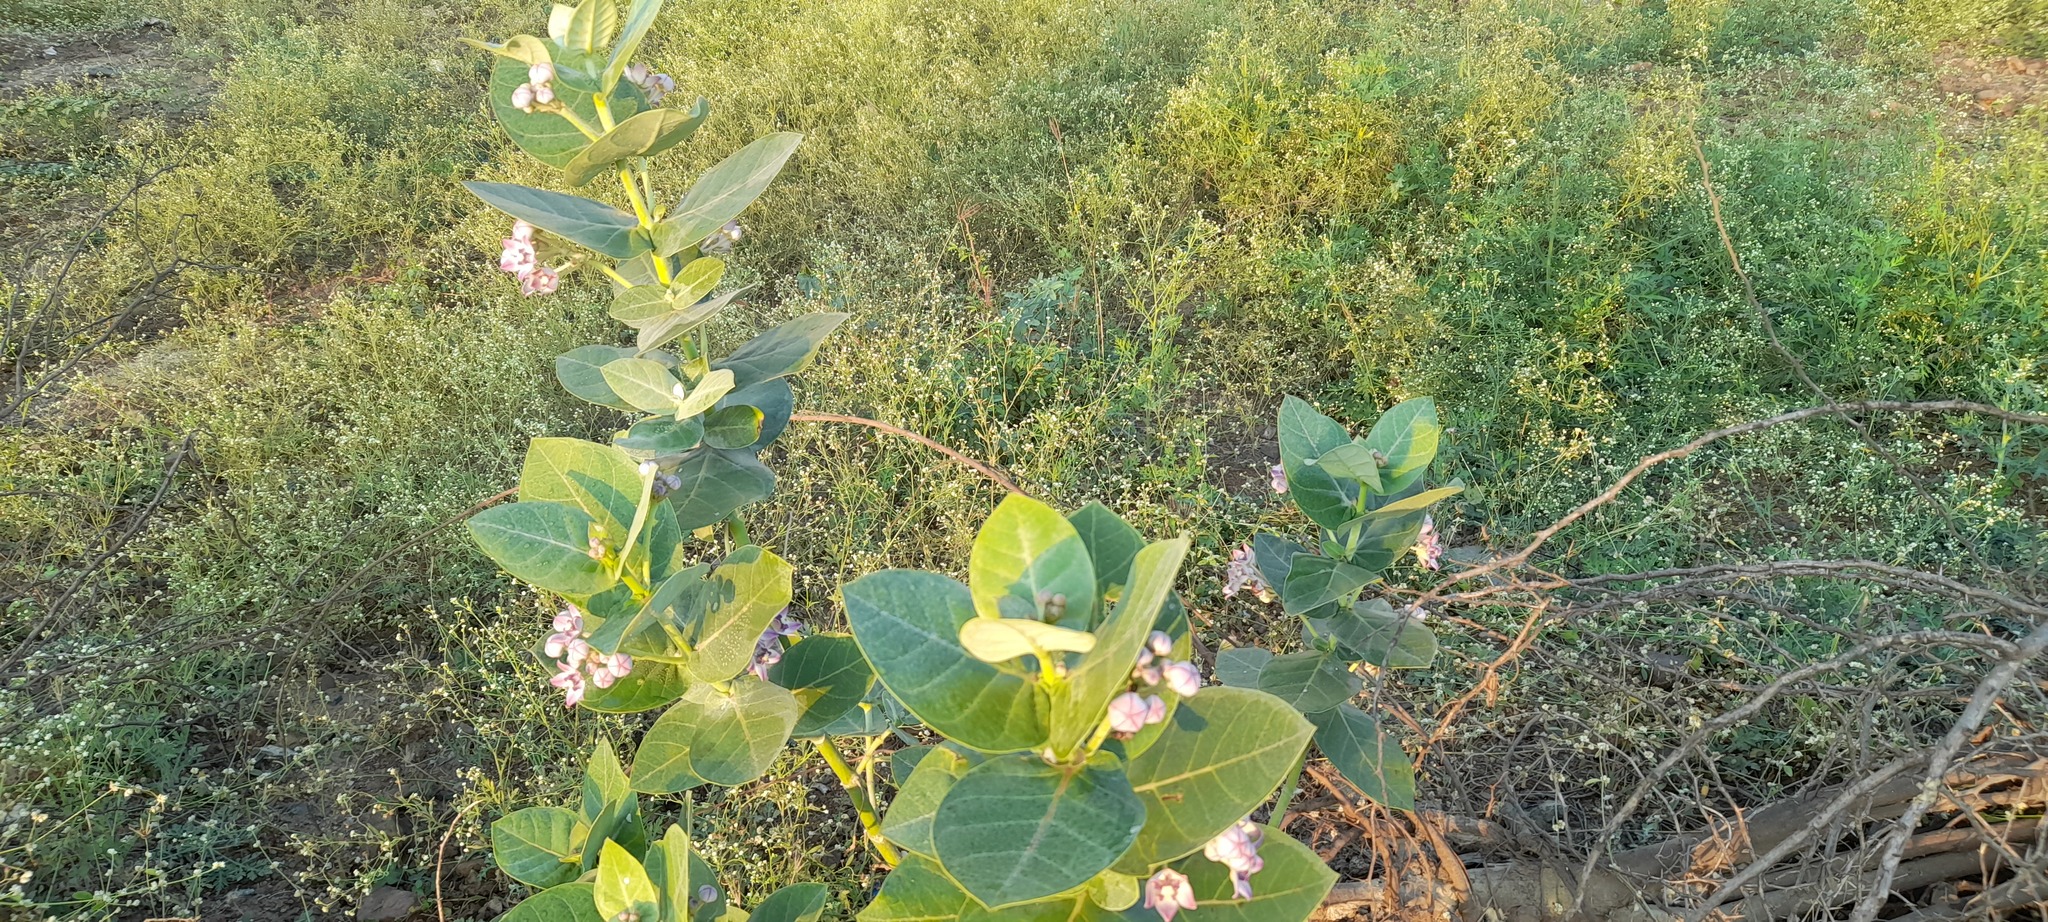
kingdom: Plantae
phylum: Tracheophyta
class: Magnoliopsida
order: Gentianales
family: Apocynaceae
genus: Calotropis
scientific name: Calotropis procera
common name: Roostertree
